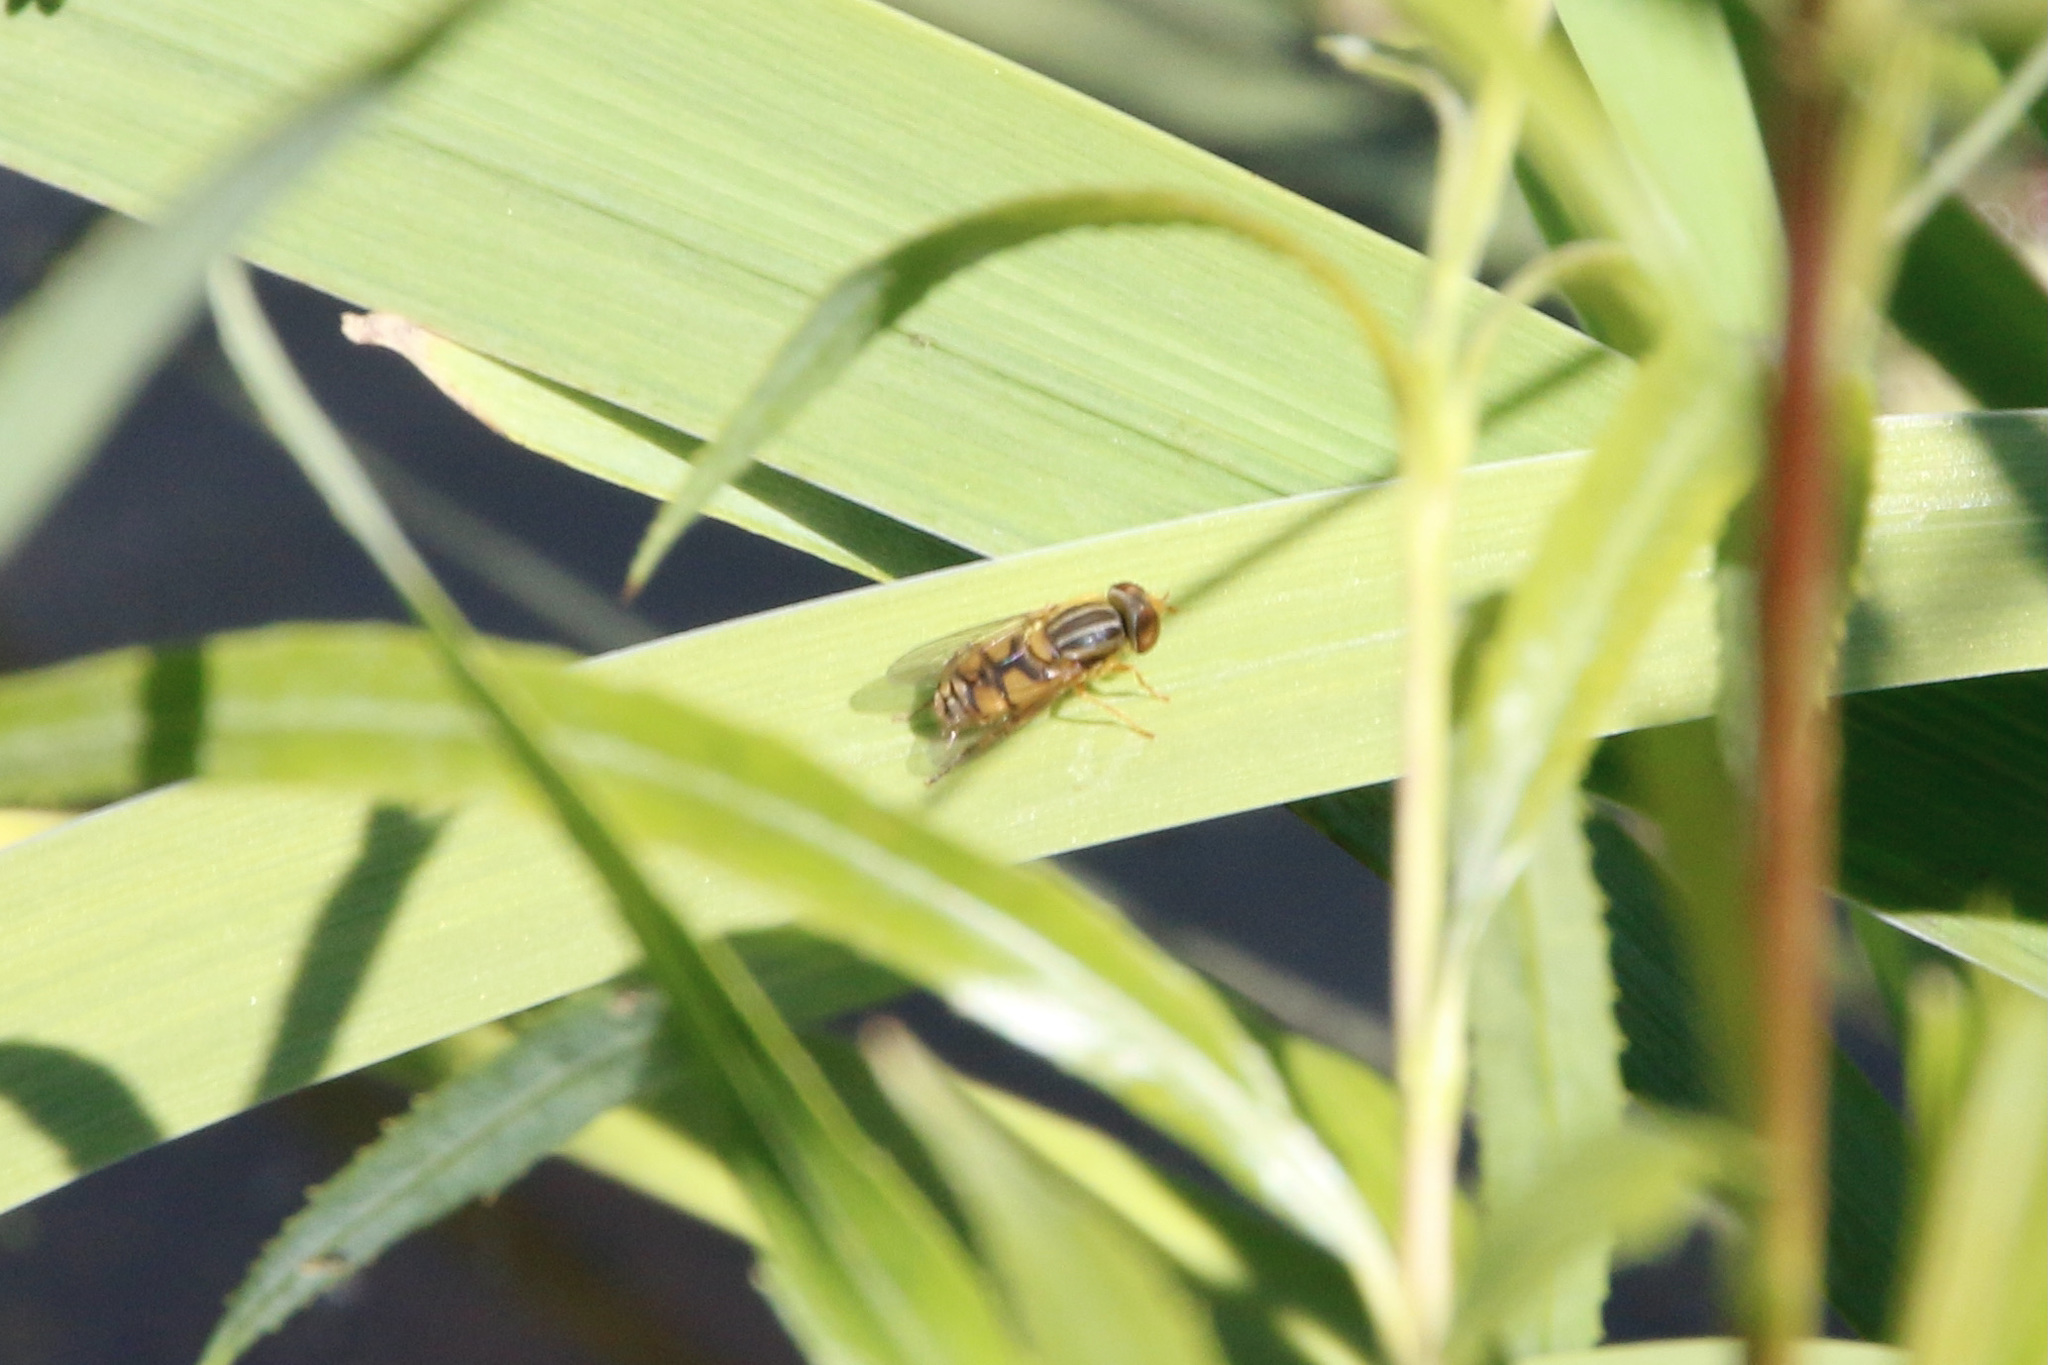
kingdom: Animalia
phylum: Arthropoda
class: Insecta
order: Diptera
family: Syrphidae
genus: Parhelophilus
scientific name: Parhelophilus laetus
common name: Common bog fly
